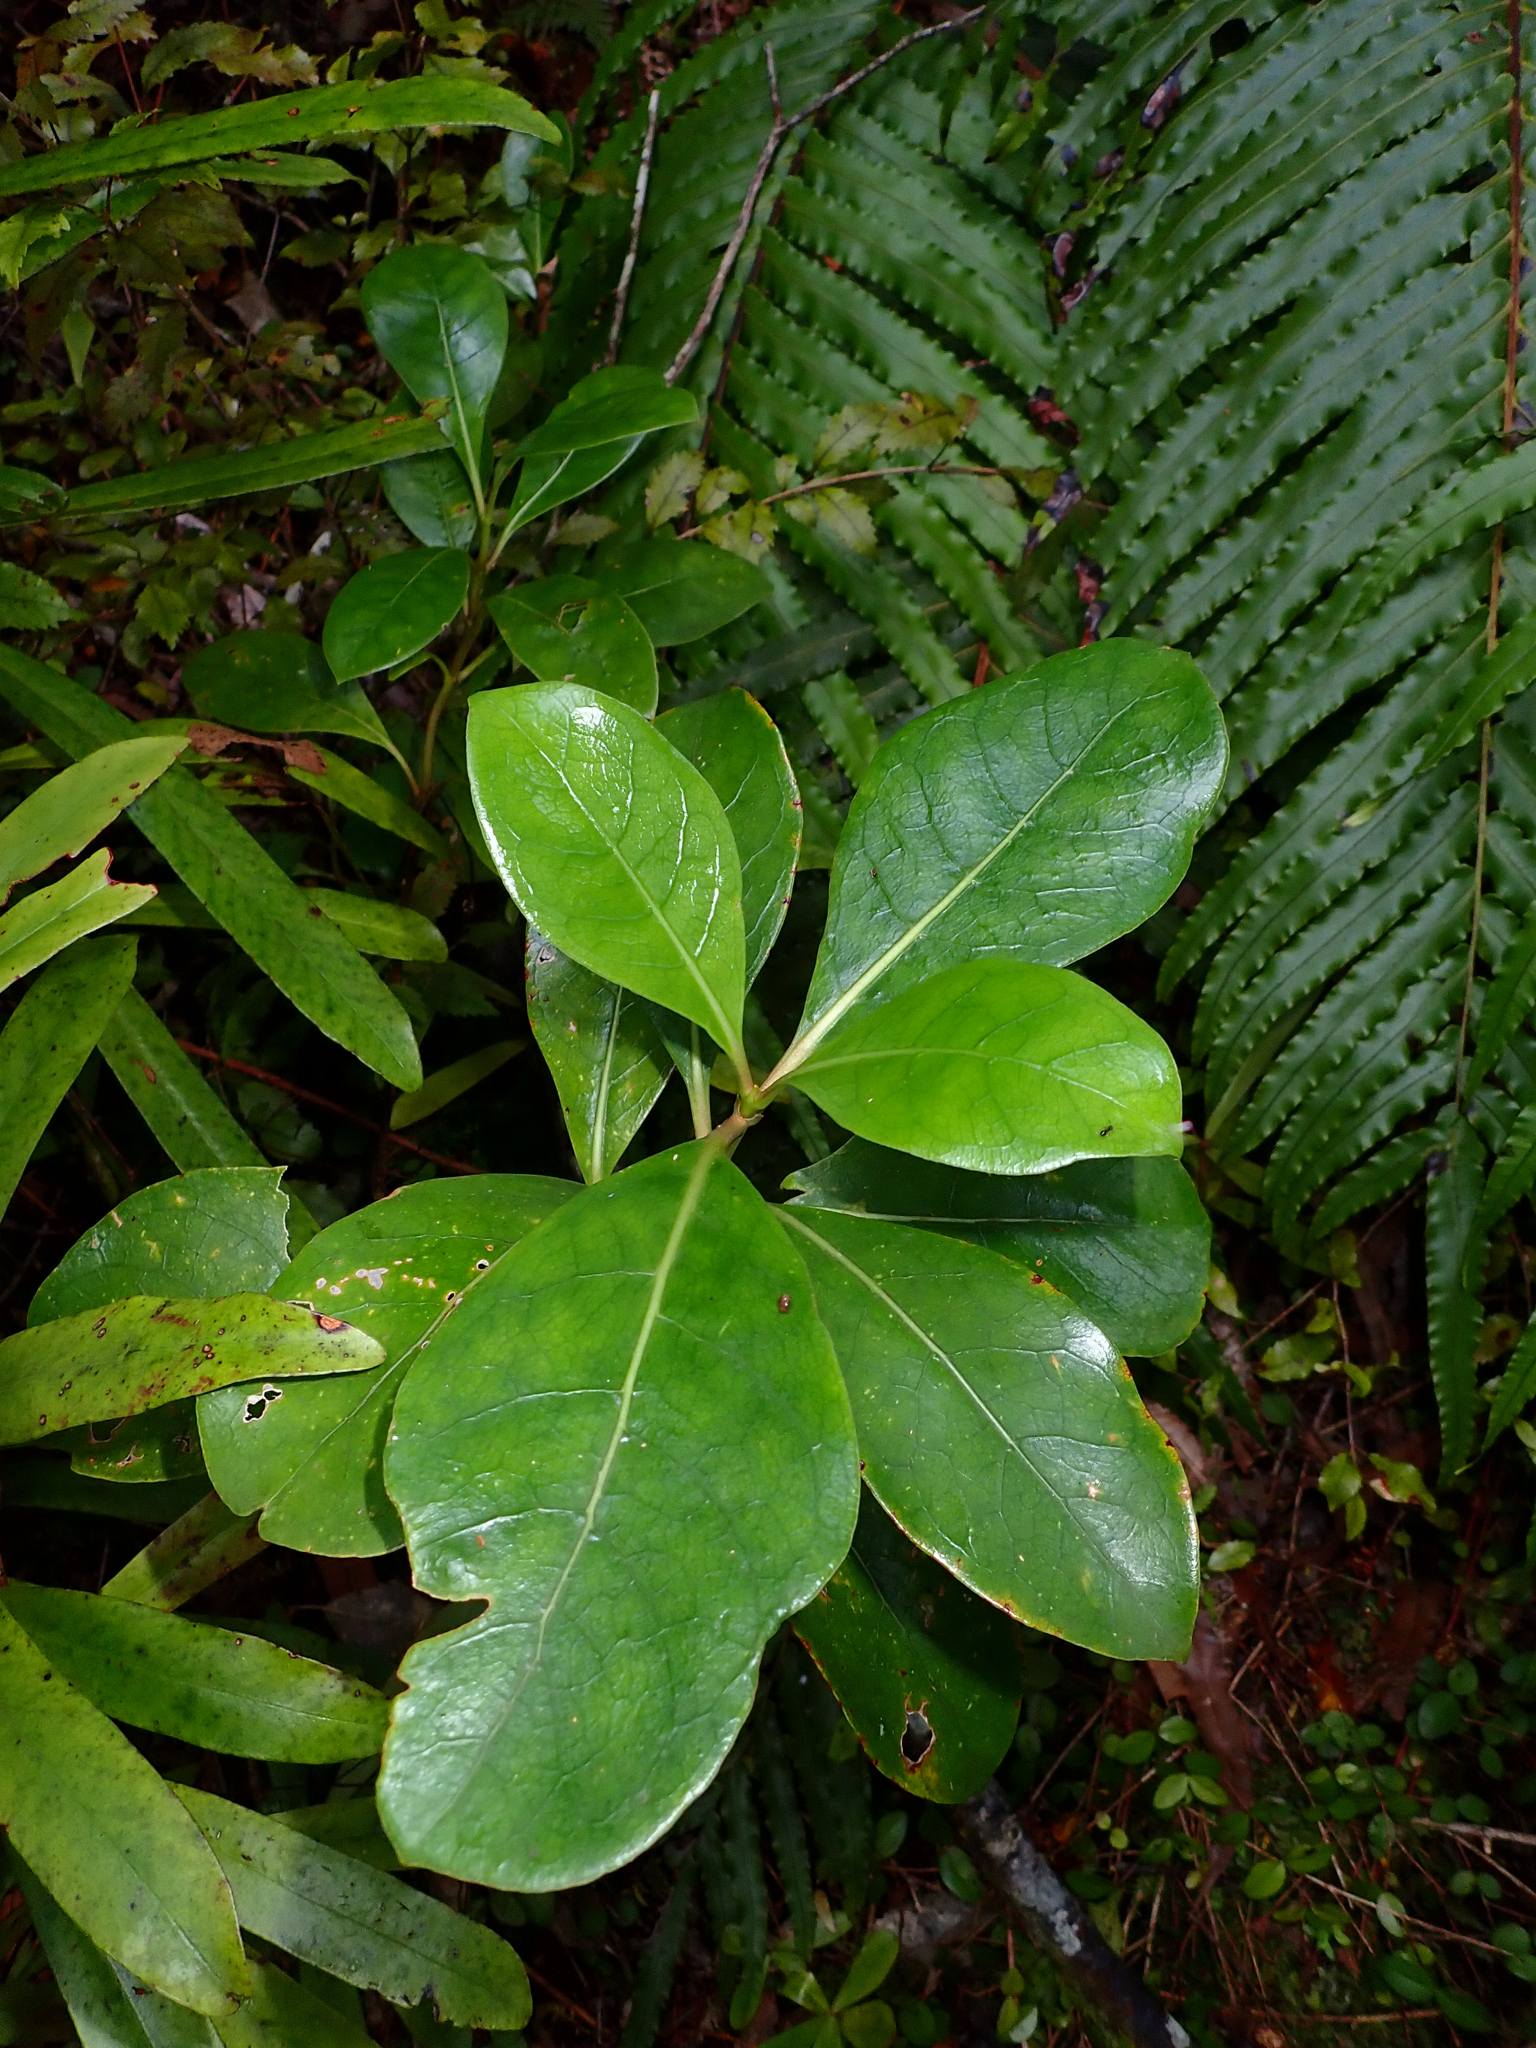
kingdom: Plantae
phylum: Tracheophyta
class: Magnoliopsida
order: Gentianales
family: Rubiaceae
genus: Coprosma
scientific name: Coprosma lucida
